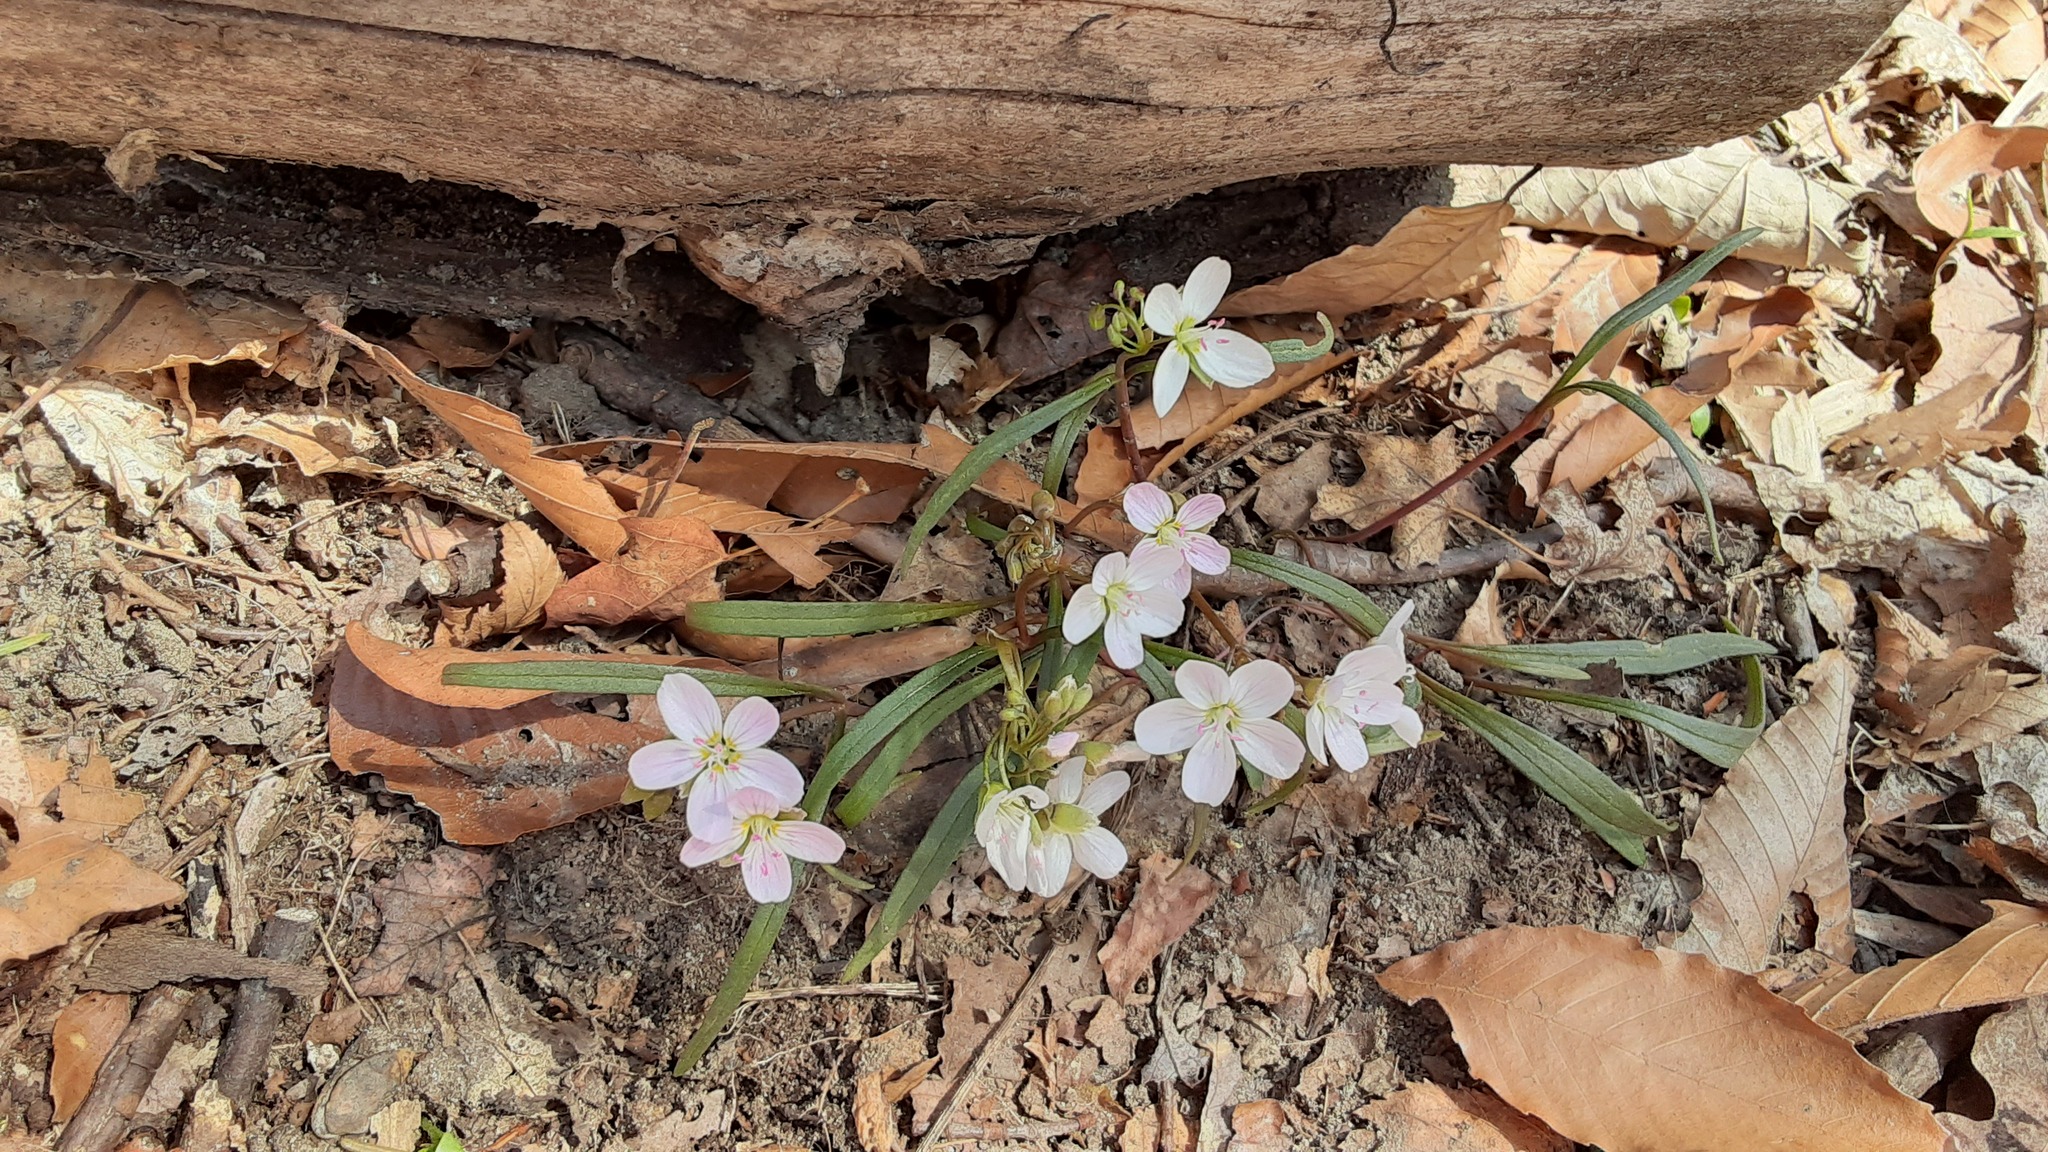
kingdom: Plantae
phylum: Tracheophyta
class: Magnoliopsida
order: Caryophyllales
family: Montiaceae
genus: Claytonia
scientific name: Claytonia virginica
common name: Virginia springbeauty
